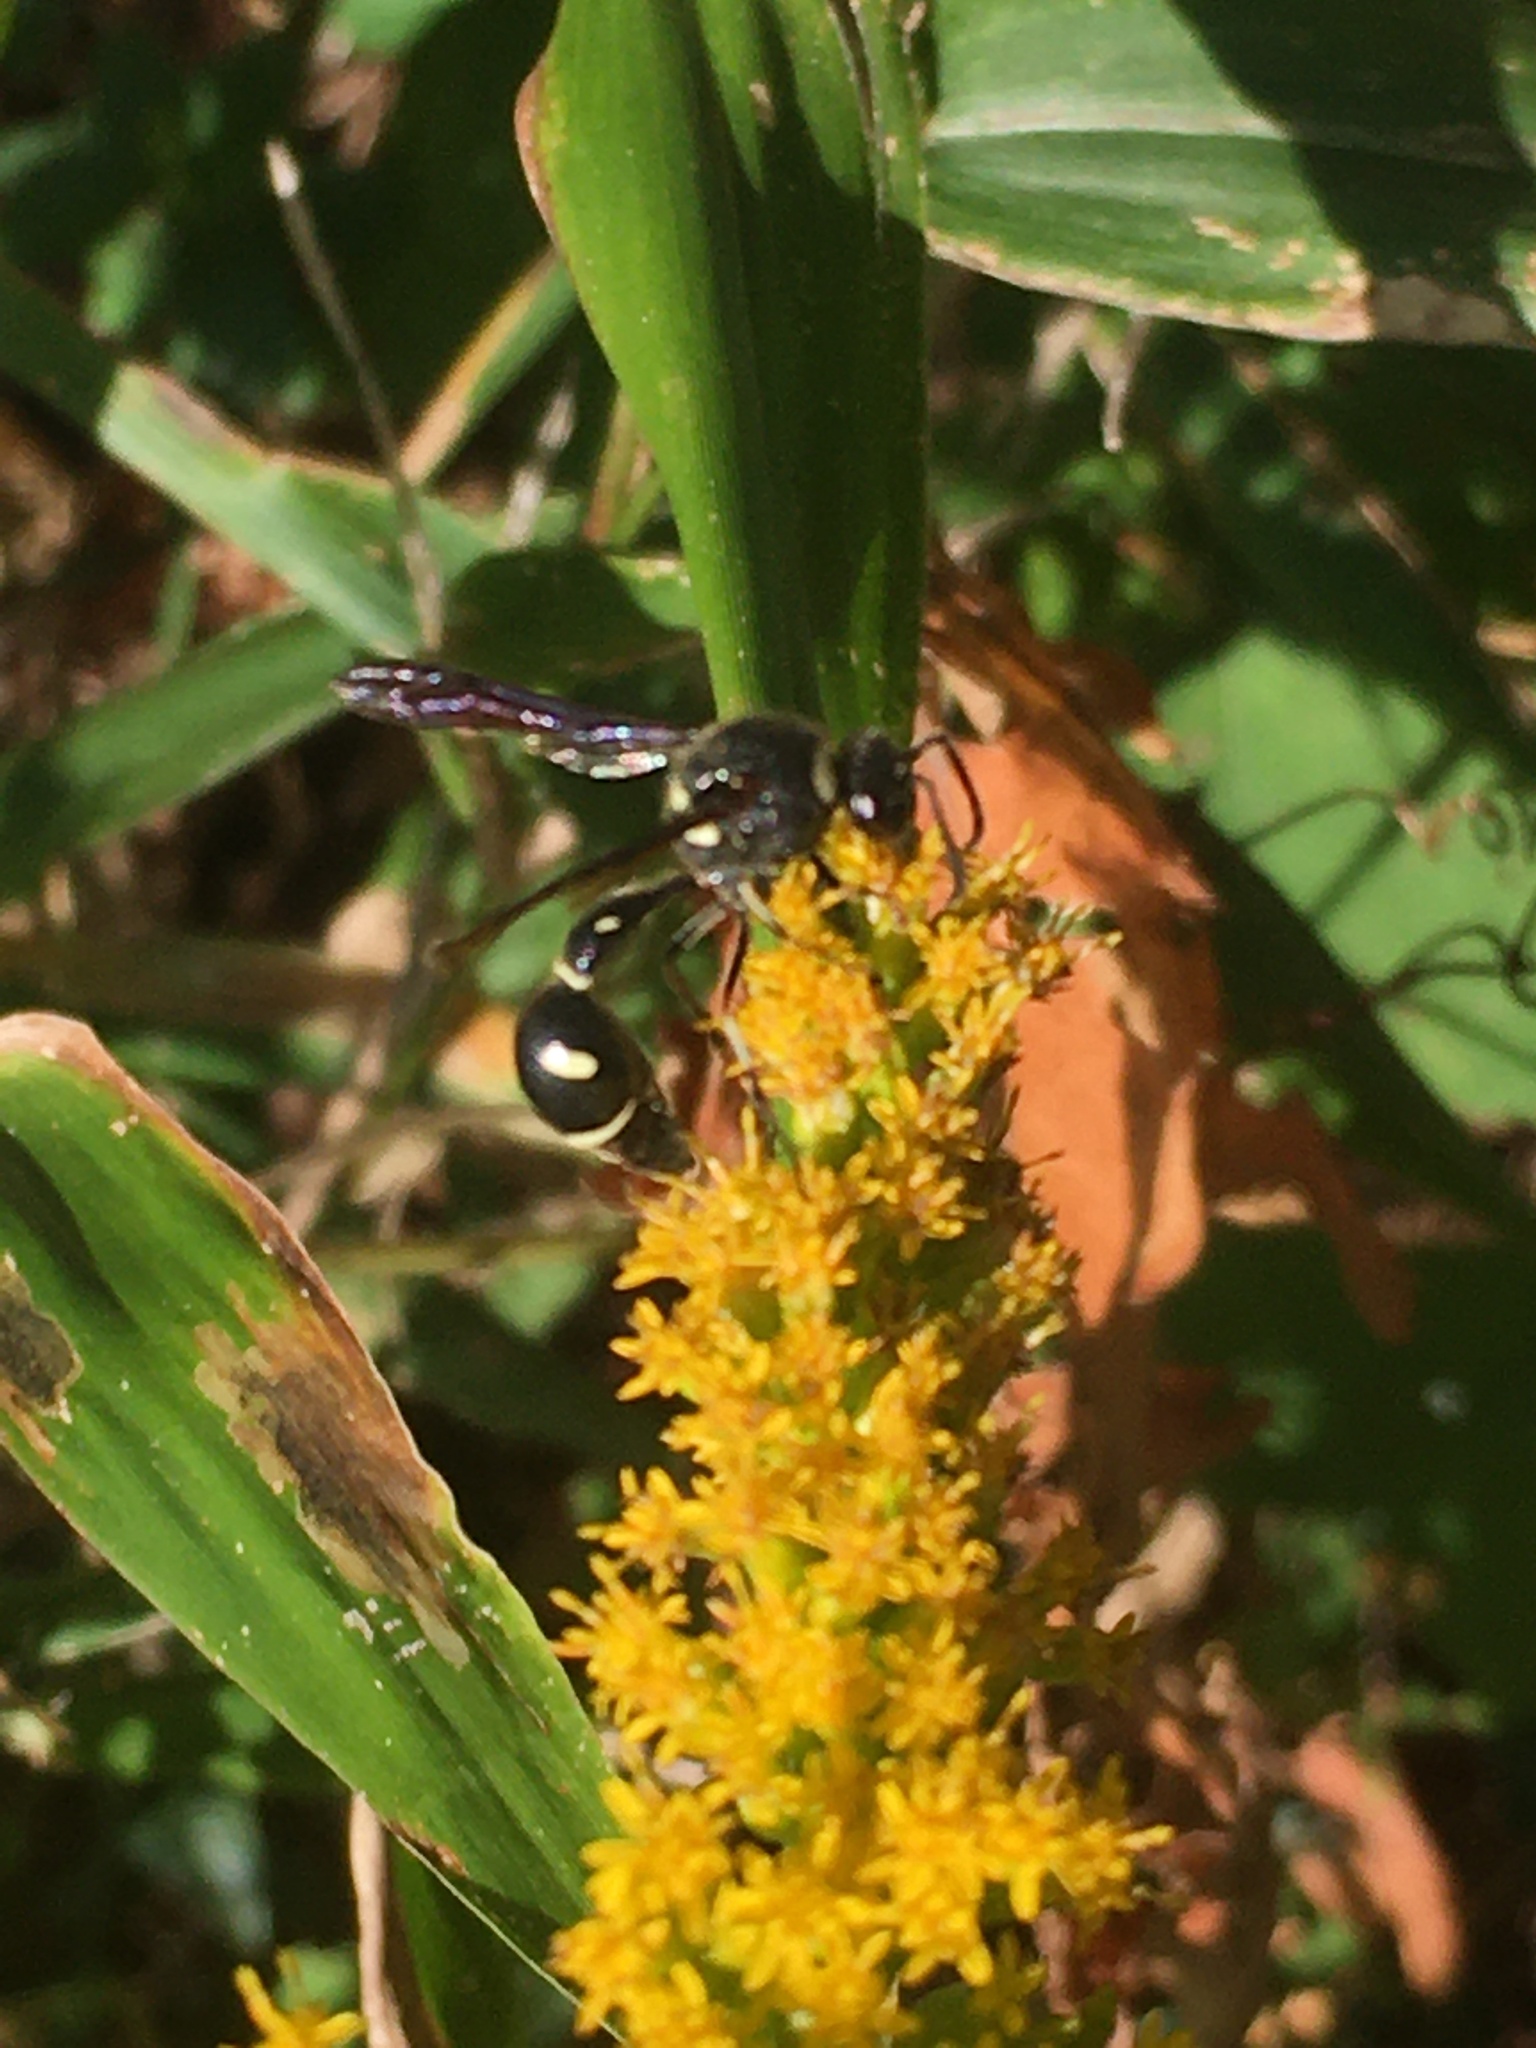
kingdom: Animalia
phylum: Arthropoda
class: Insecta
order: Hymenoptera
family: Vespidae
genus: Eumenes
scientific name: Eumenes fraternus
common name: Fraternal potter wasp
